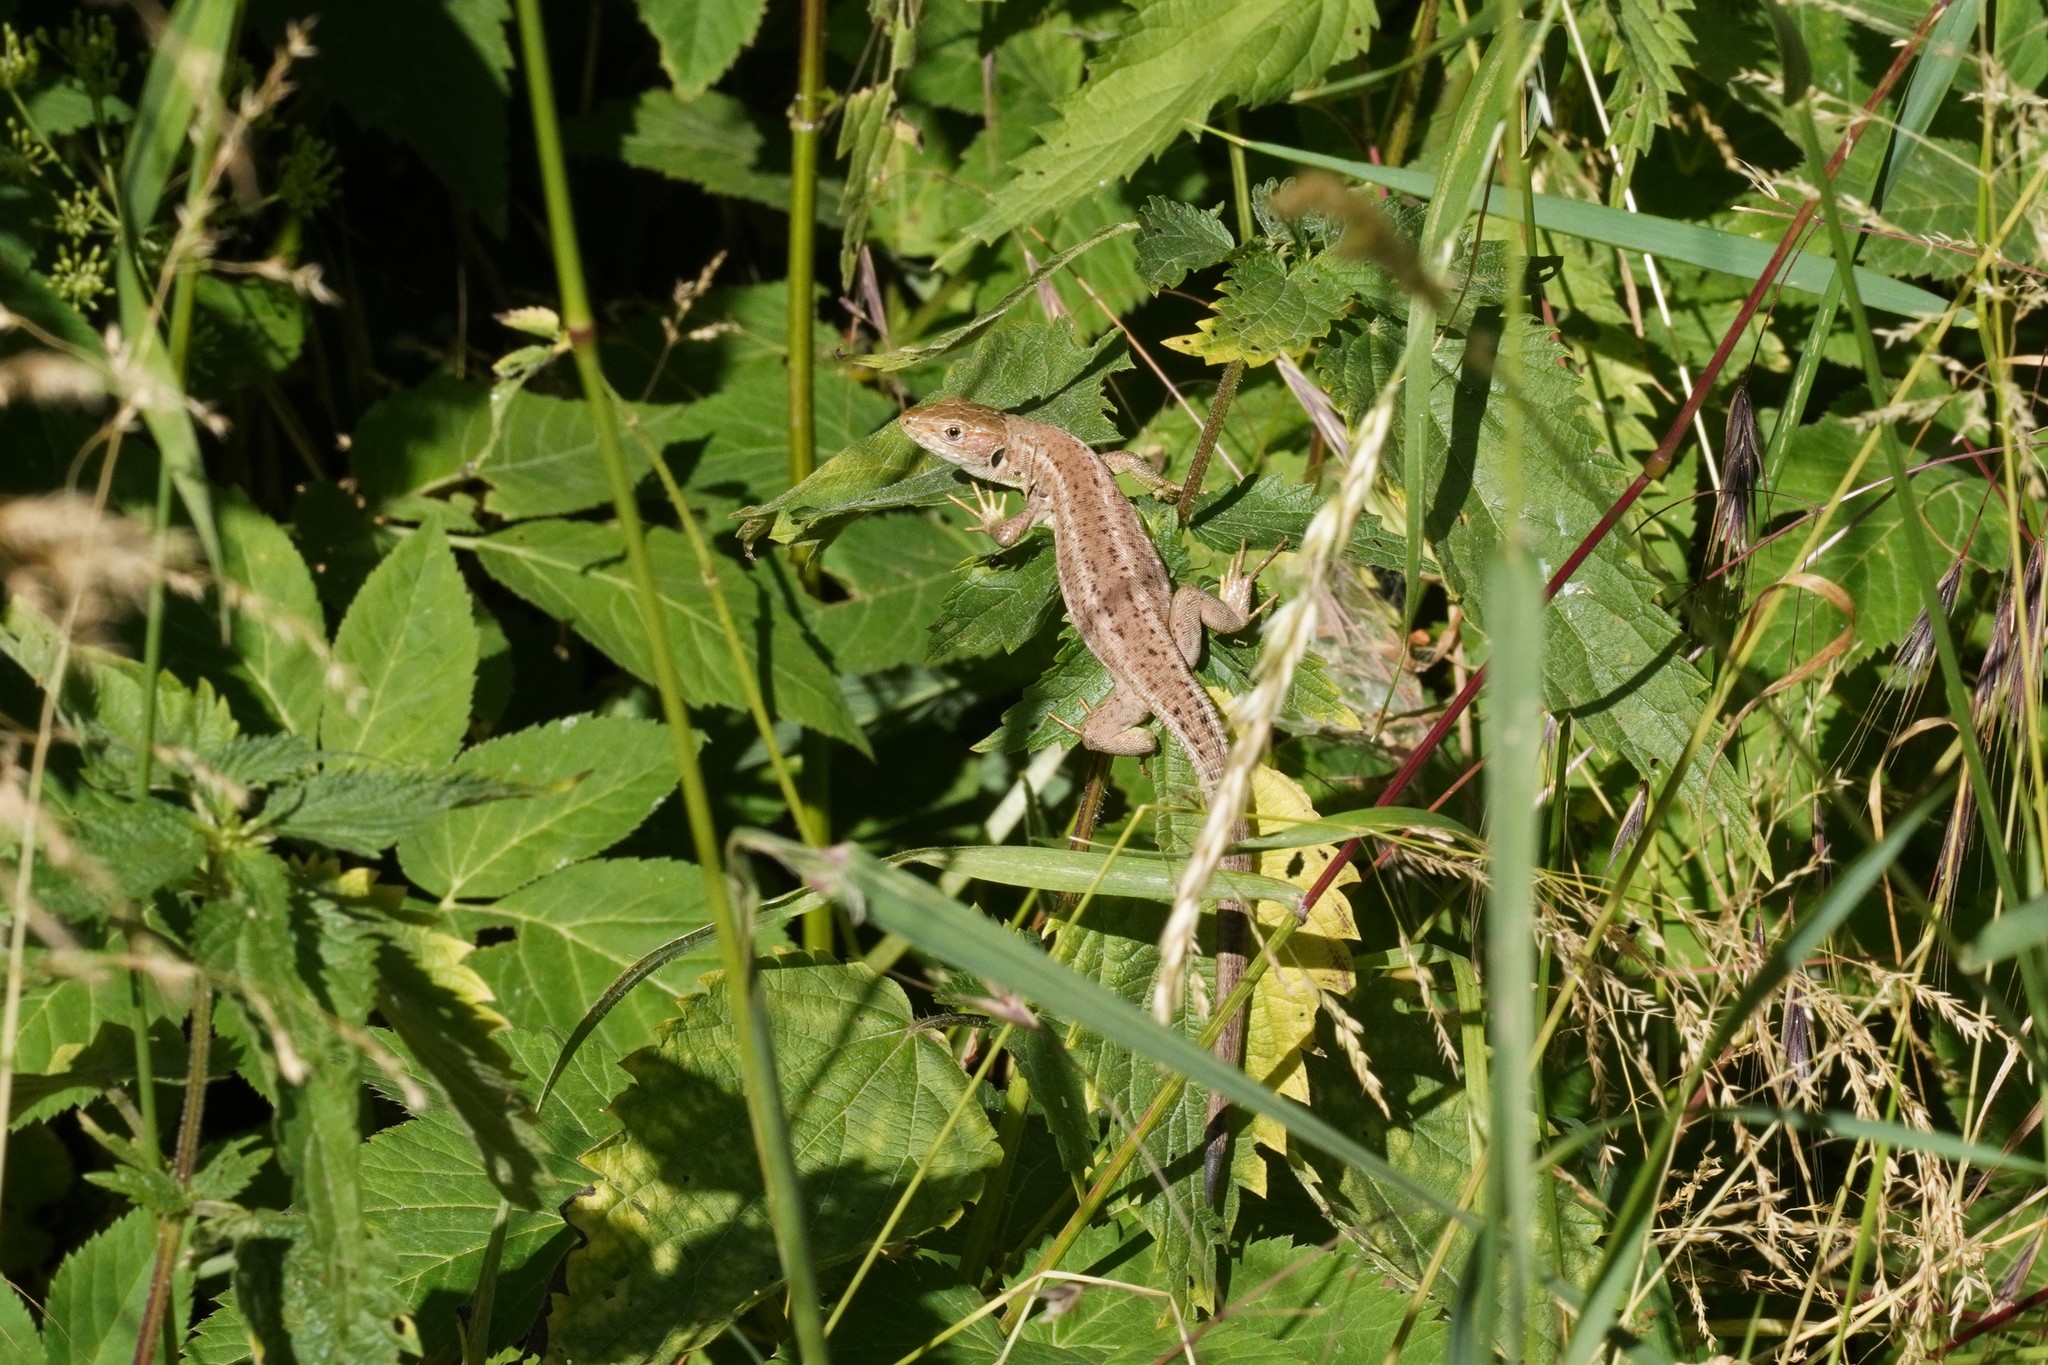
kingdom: Animalia
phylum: Chordata
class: Squamata
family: Lacertidae
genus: Lacerta
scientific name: Lacerta viridis
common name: European green lizard
